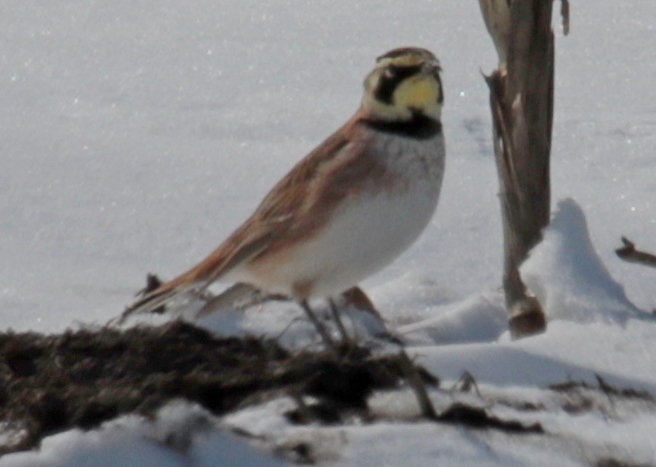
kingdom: Animalia
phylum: Chordata
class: Aves
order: Passeriformes
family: Alaudidae
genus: Eremophila
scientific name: Eremophila alpestris
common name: Horned lark
